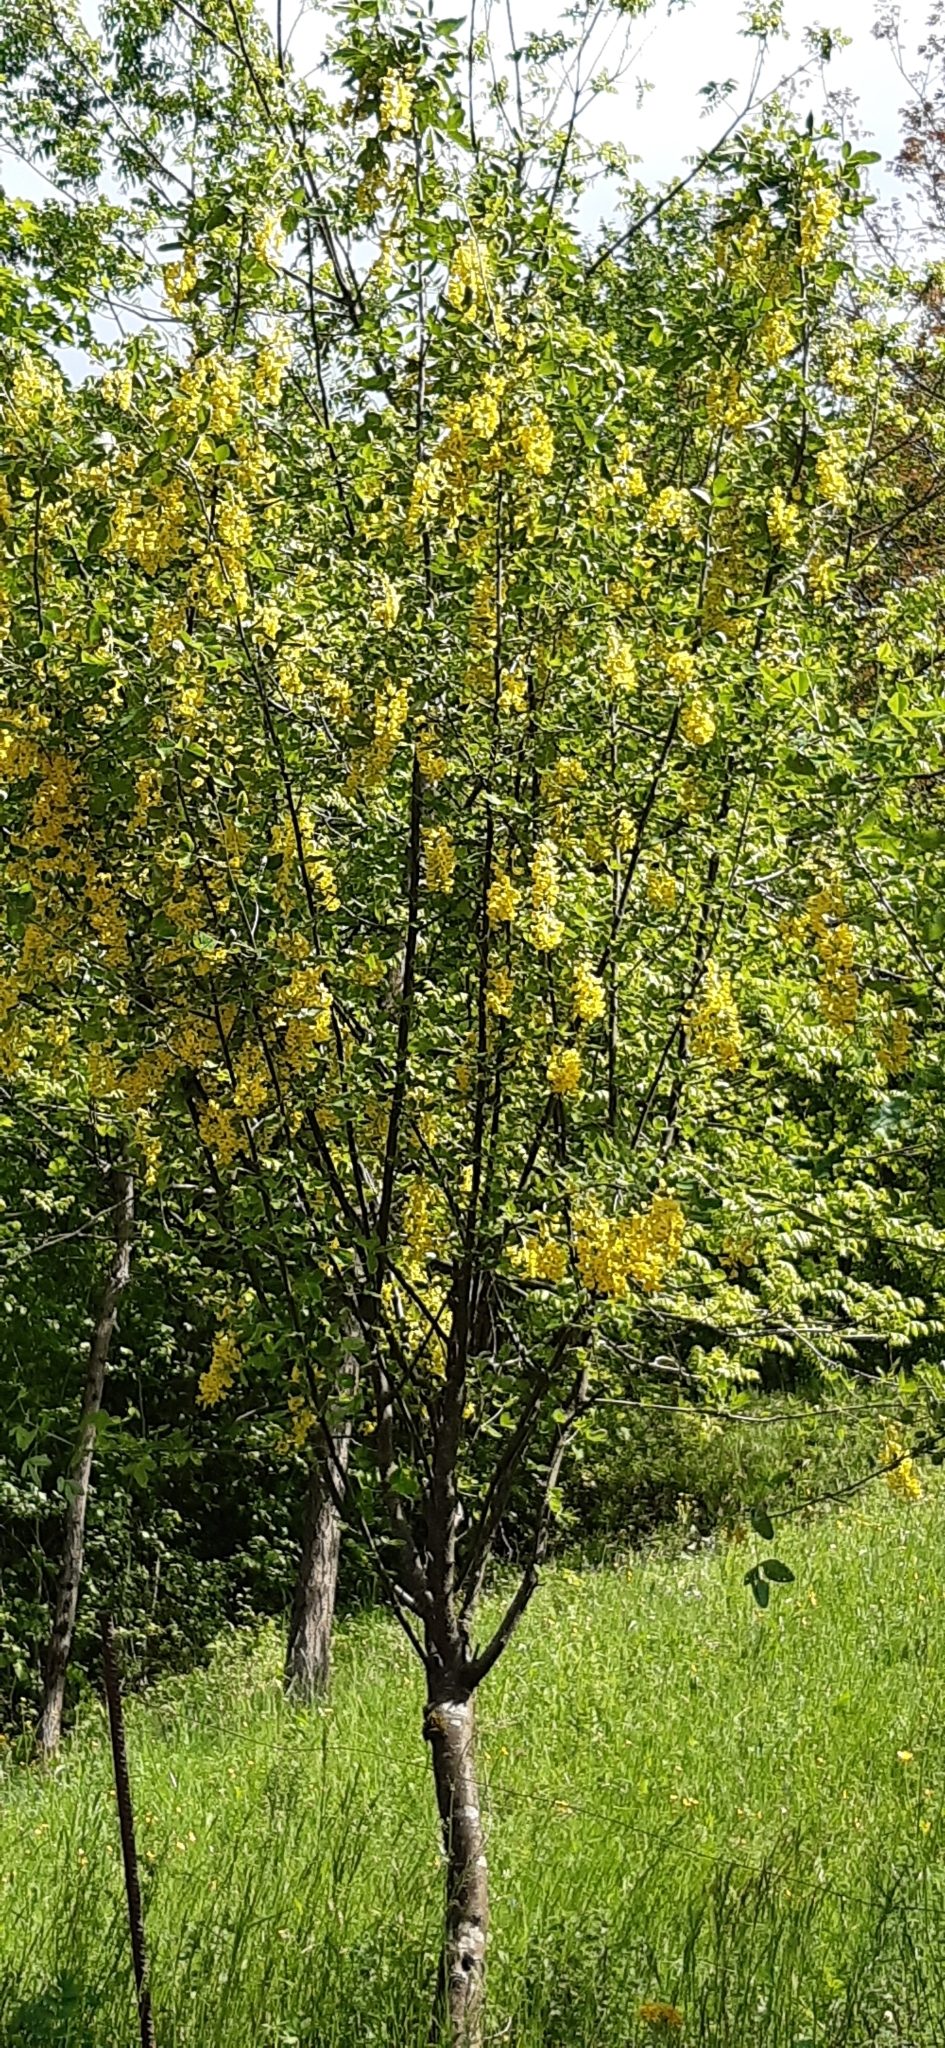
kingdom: Plantae
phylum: Tracheophyta
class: Magnoliopsida
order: Fabales
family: Fabaceae
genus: Laburnum
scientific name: Laburnum anagyroides
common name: Laburnum
